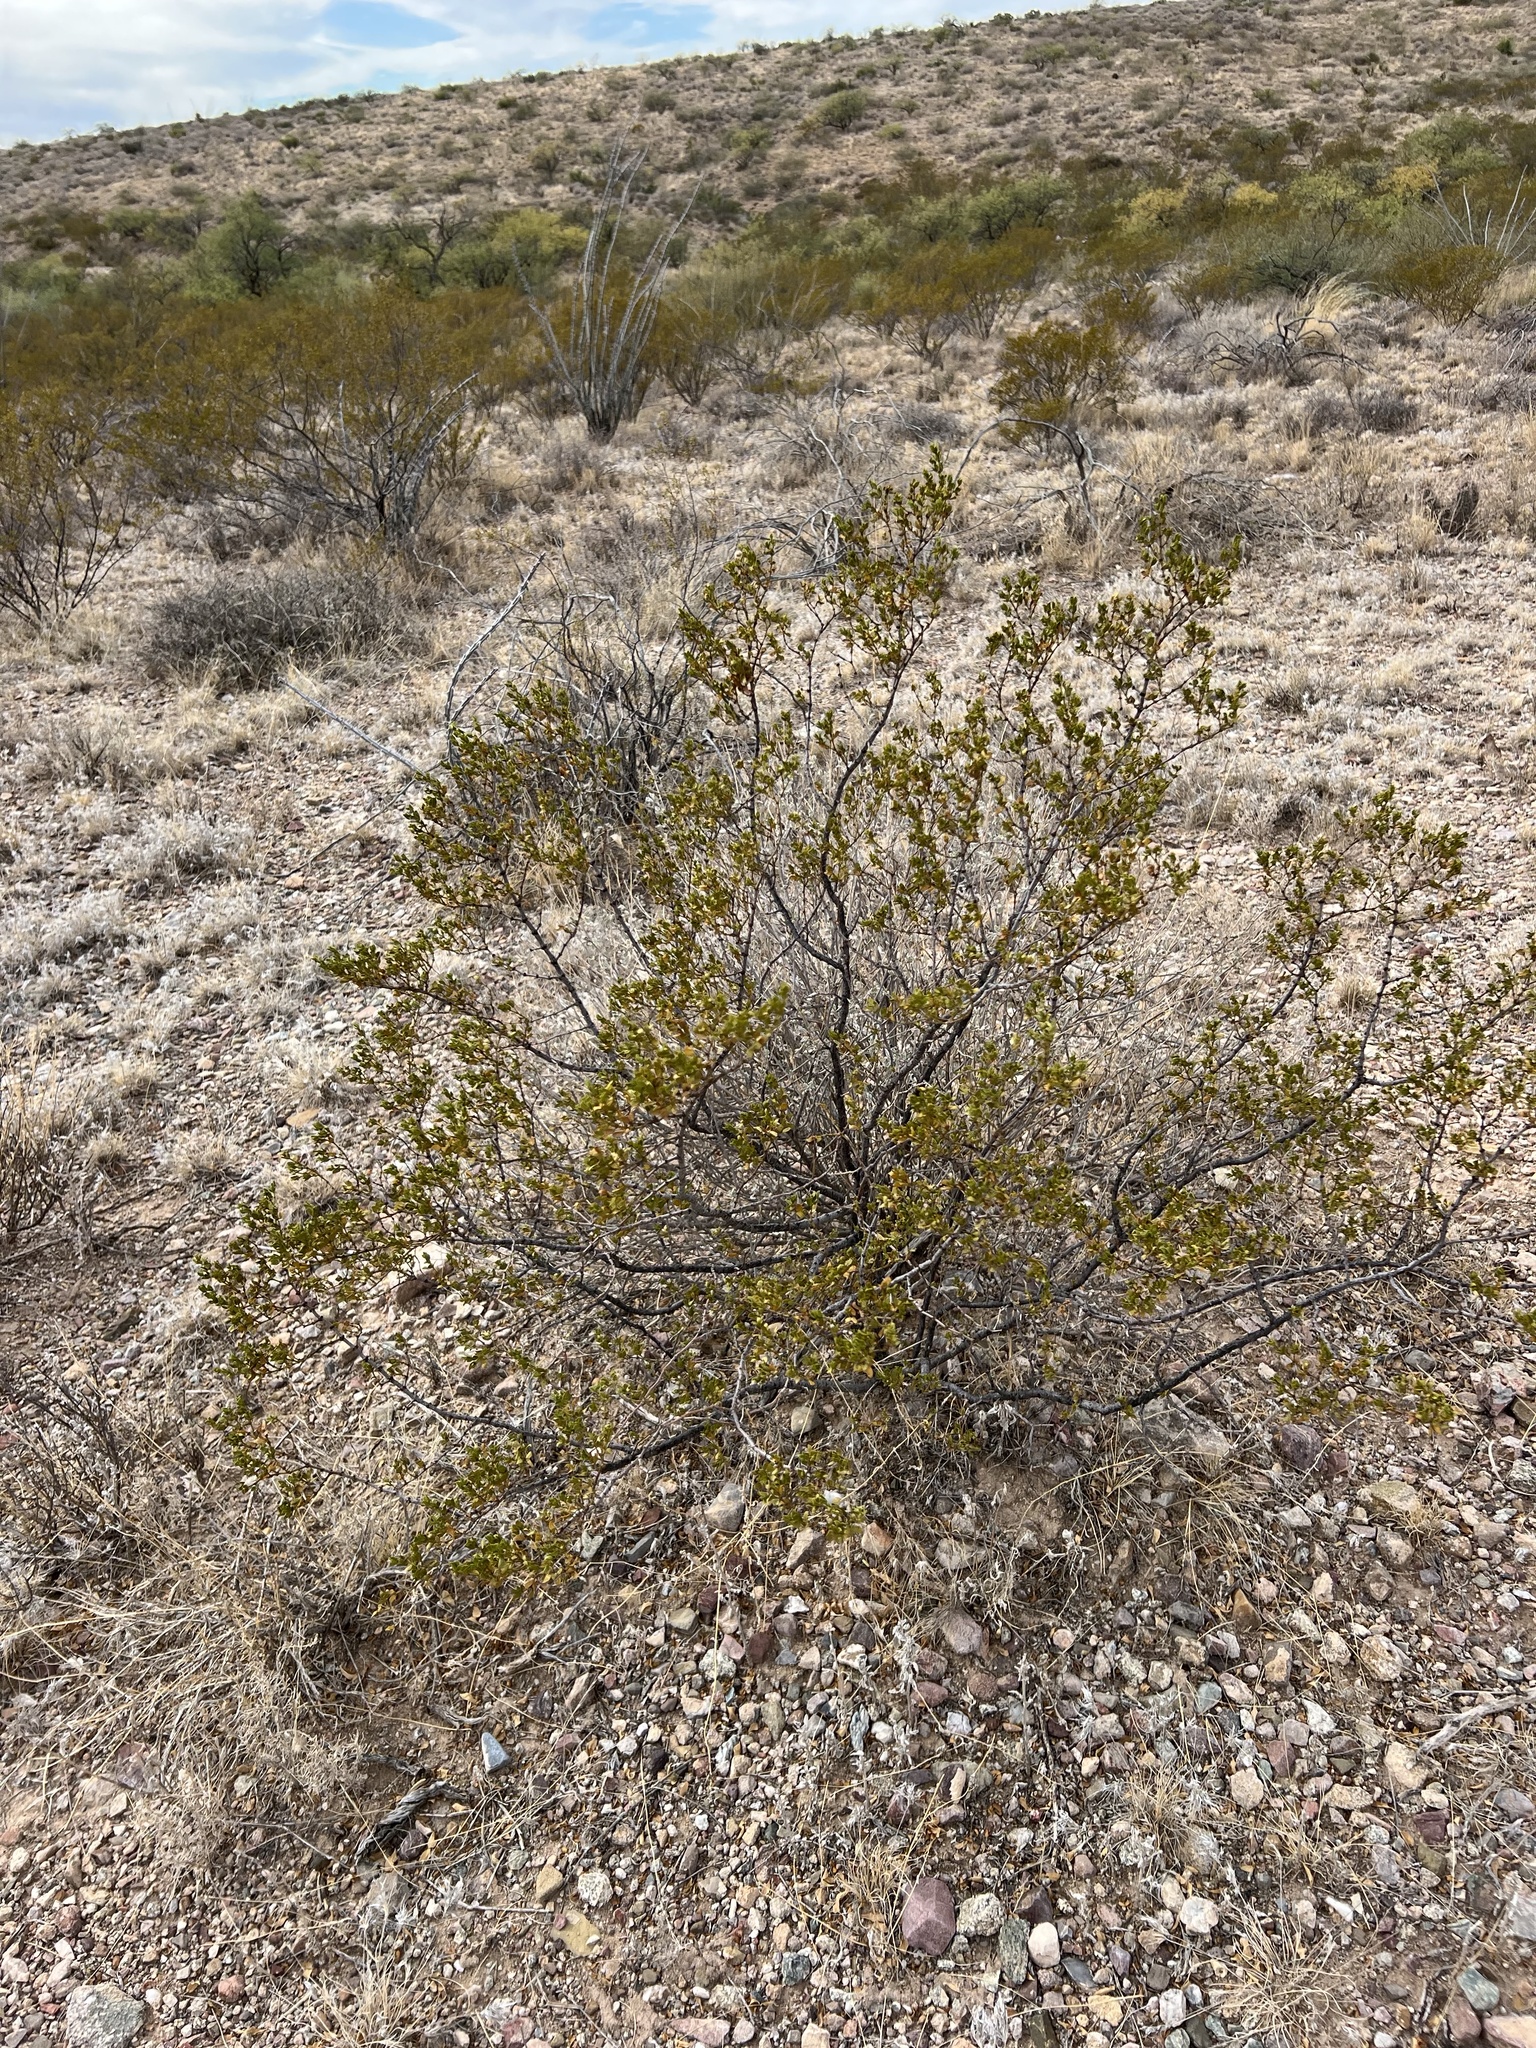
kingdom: Plantae
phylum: Tracheophyta
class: Magnoliopsida
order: Zygophyllales
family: Zygophyllaceae
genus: Larrea
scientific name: Larrea tridentata
